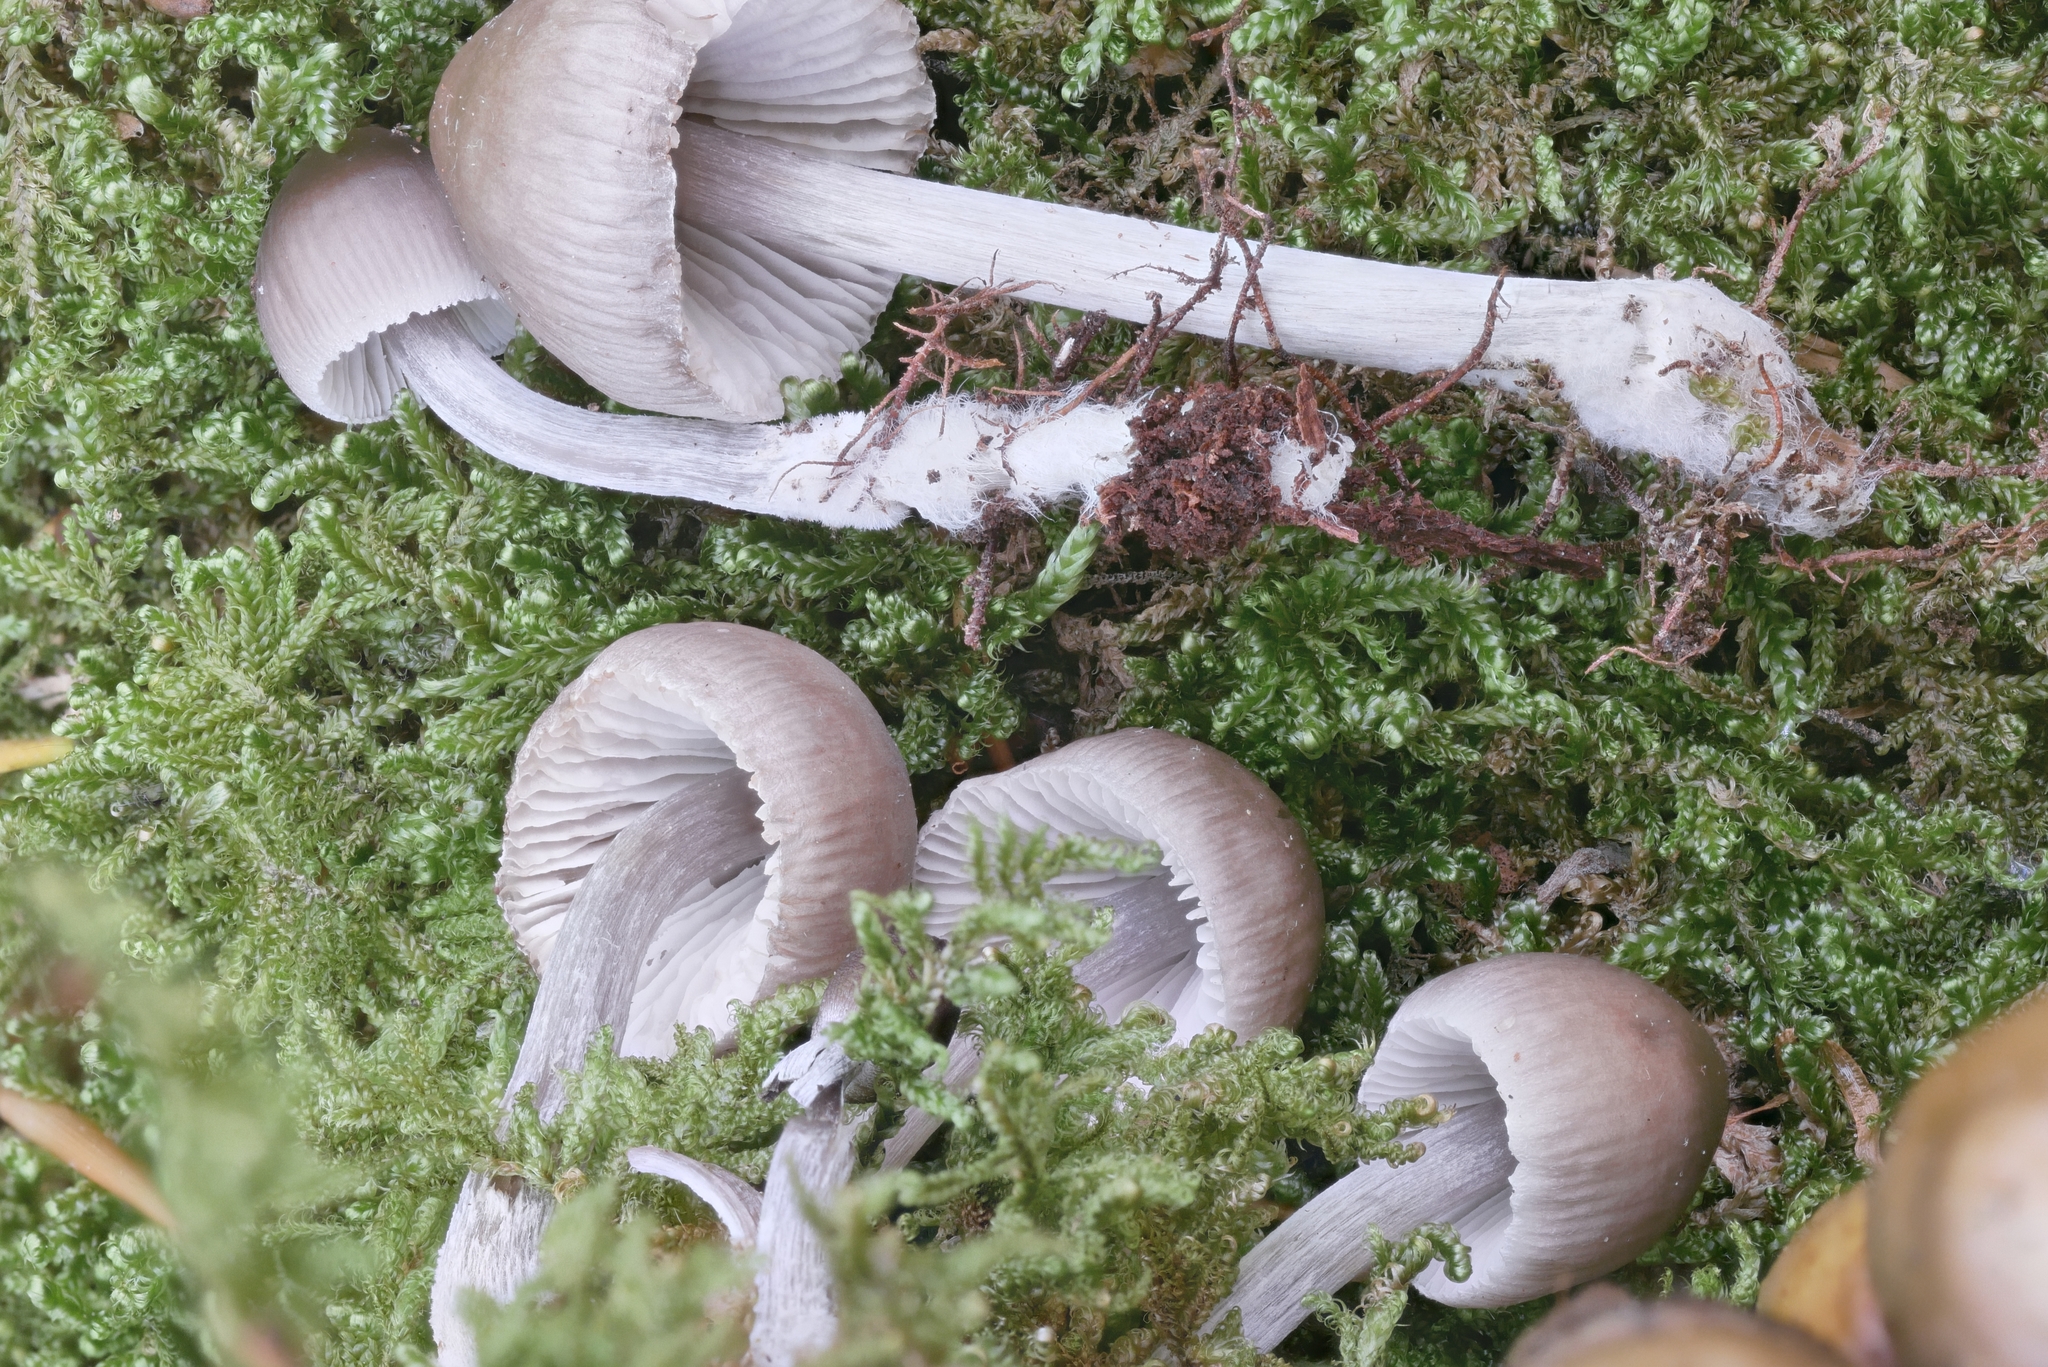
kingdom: Fungi
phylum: Basidiomycota
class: Agaricomycetes
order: Agaricales
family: Mycenaceae
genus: Mycena
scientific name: Mycena inclinata
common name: Clustered bonnet
